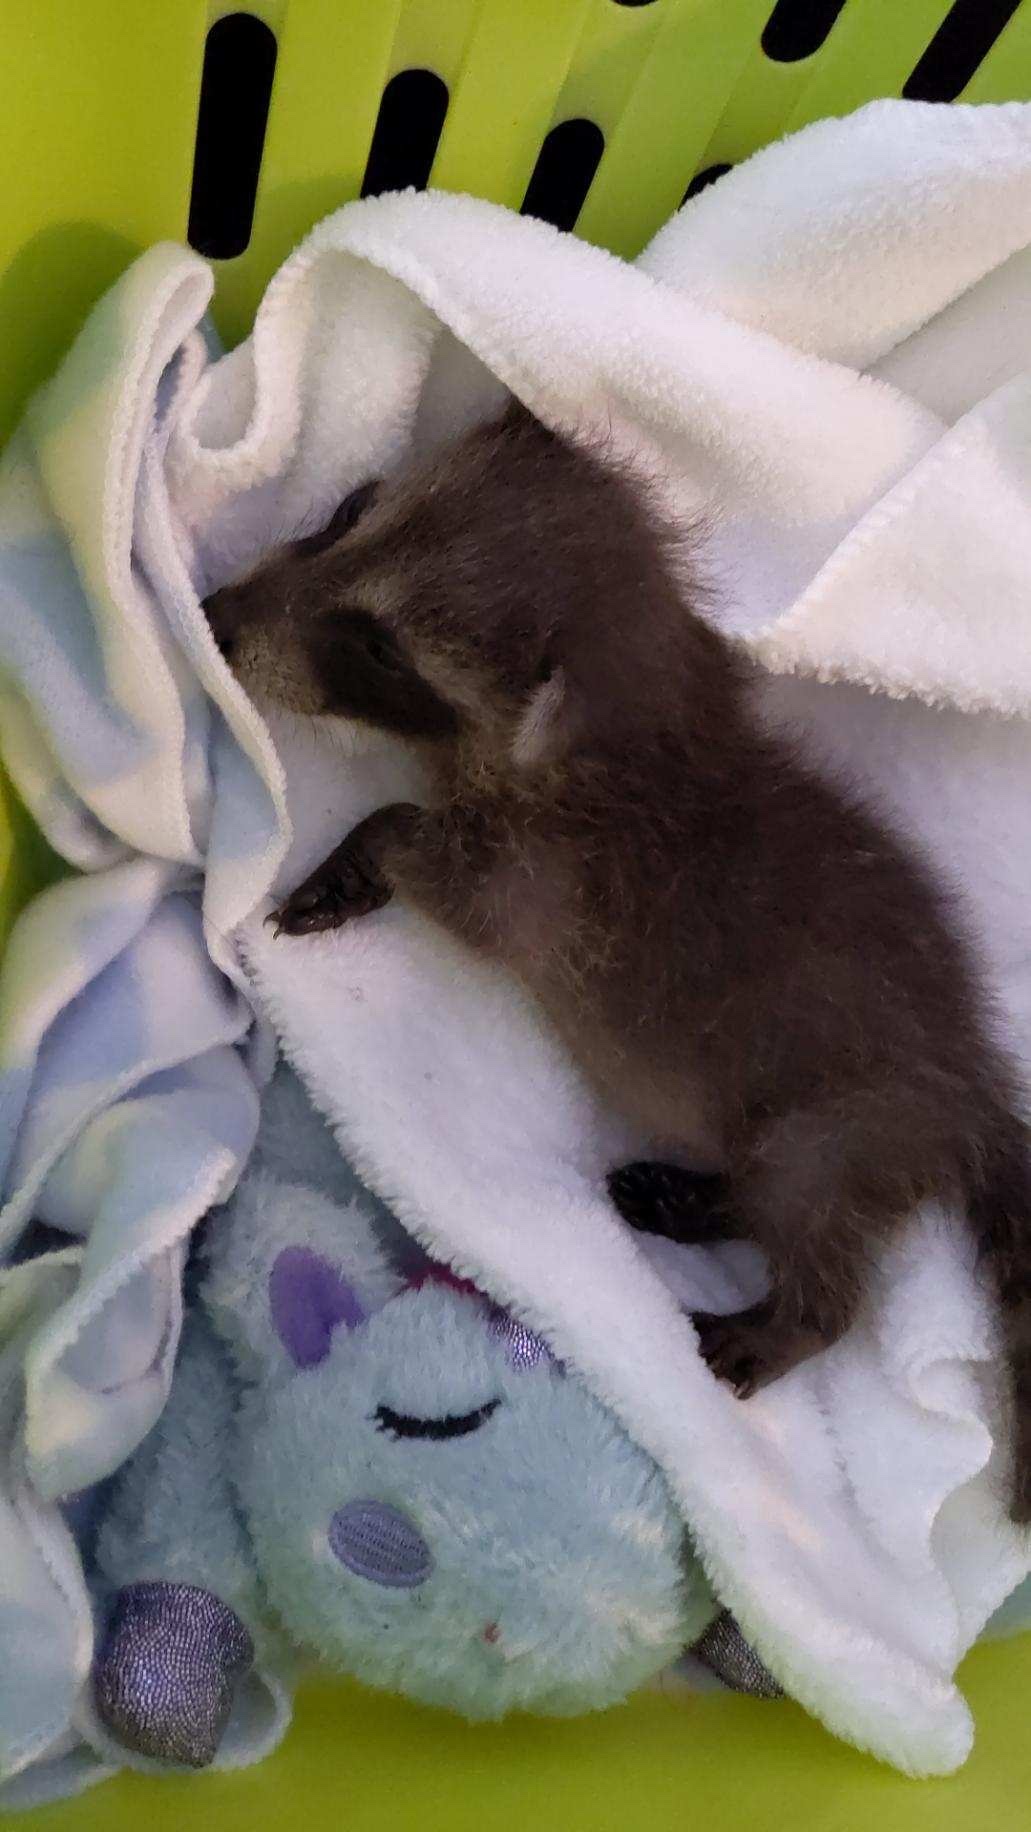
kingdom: Animalia
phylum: Chordata
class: Mammalia
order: Carnivora
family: Procyonidae
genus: Procyon
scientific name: Procyon lotor
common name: Raccoon
